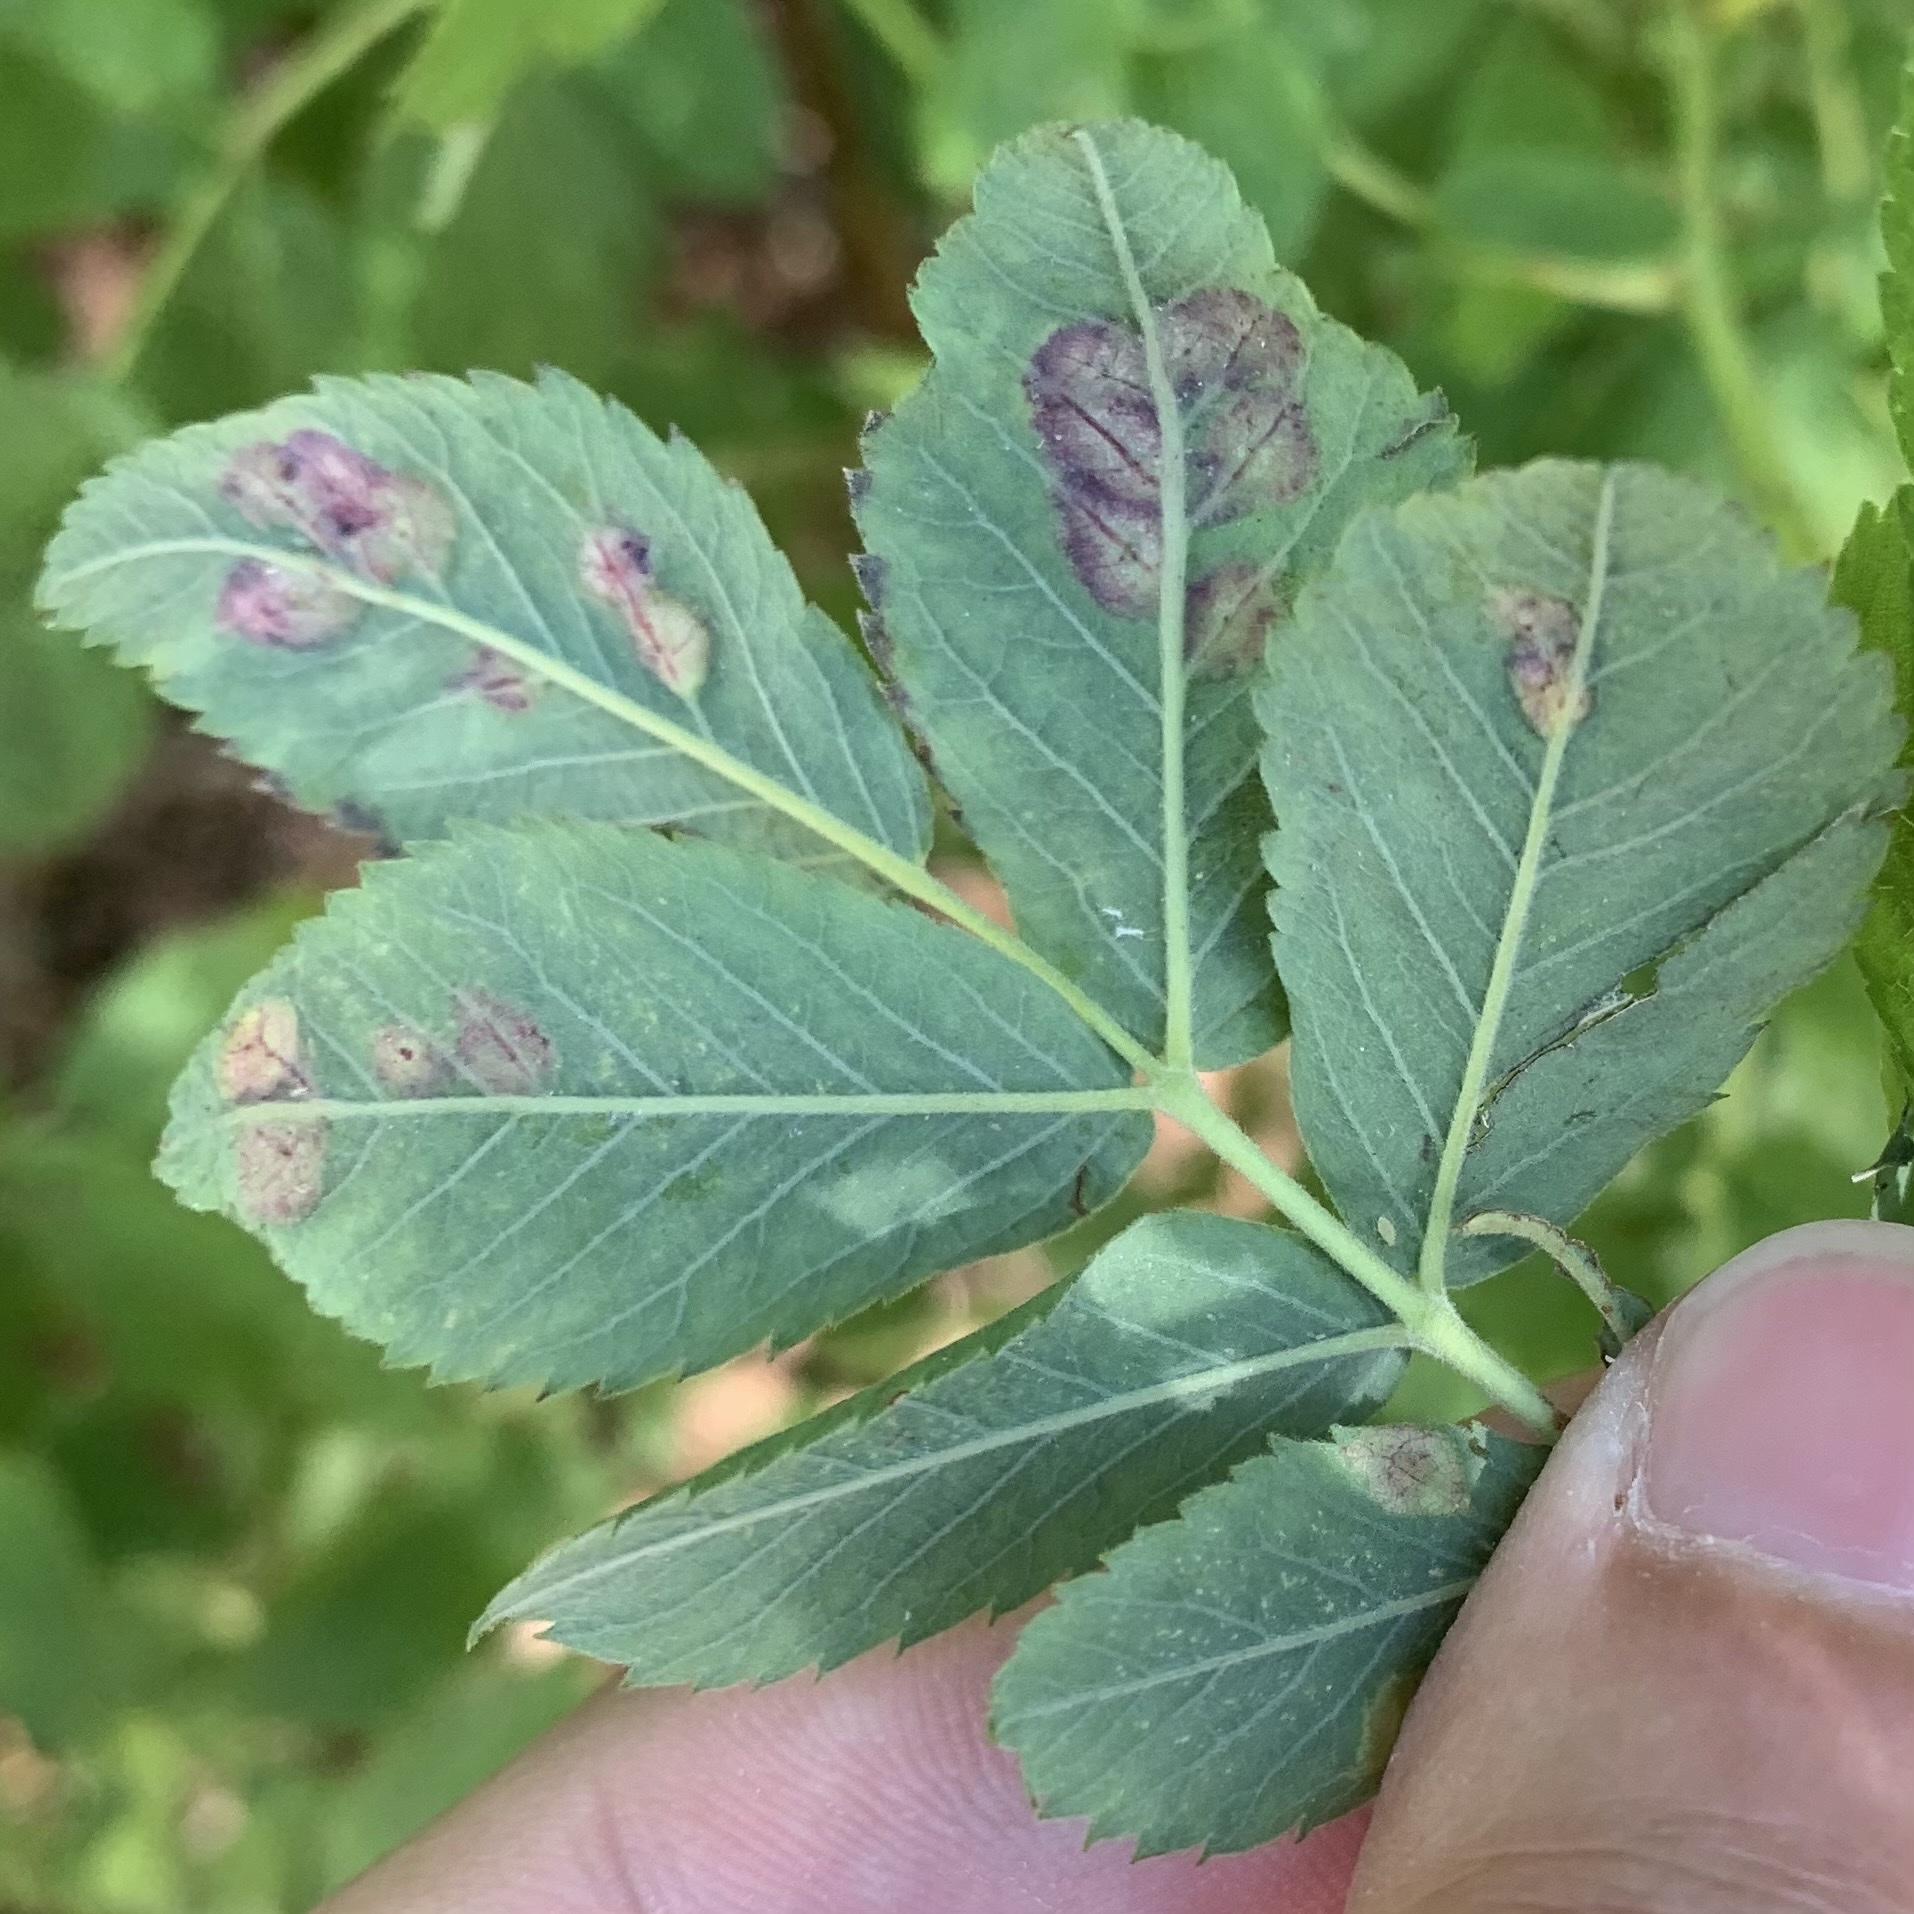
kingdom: Animalia
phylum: Arthropoda
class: Insecta
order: Hymenoptera
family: Cynipidae
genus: Diplolepis
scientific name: Diplolepis rosaefolii
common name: Blister-gall wasp
